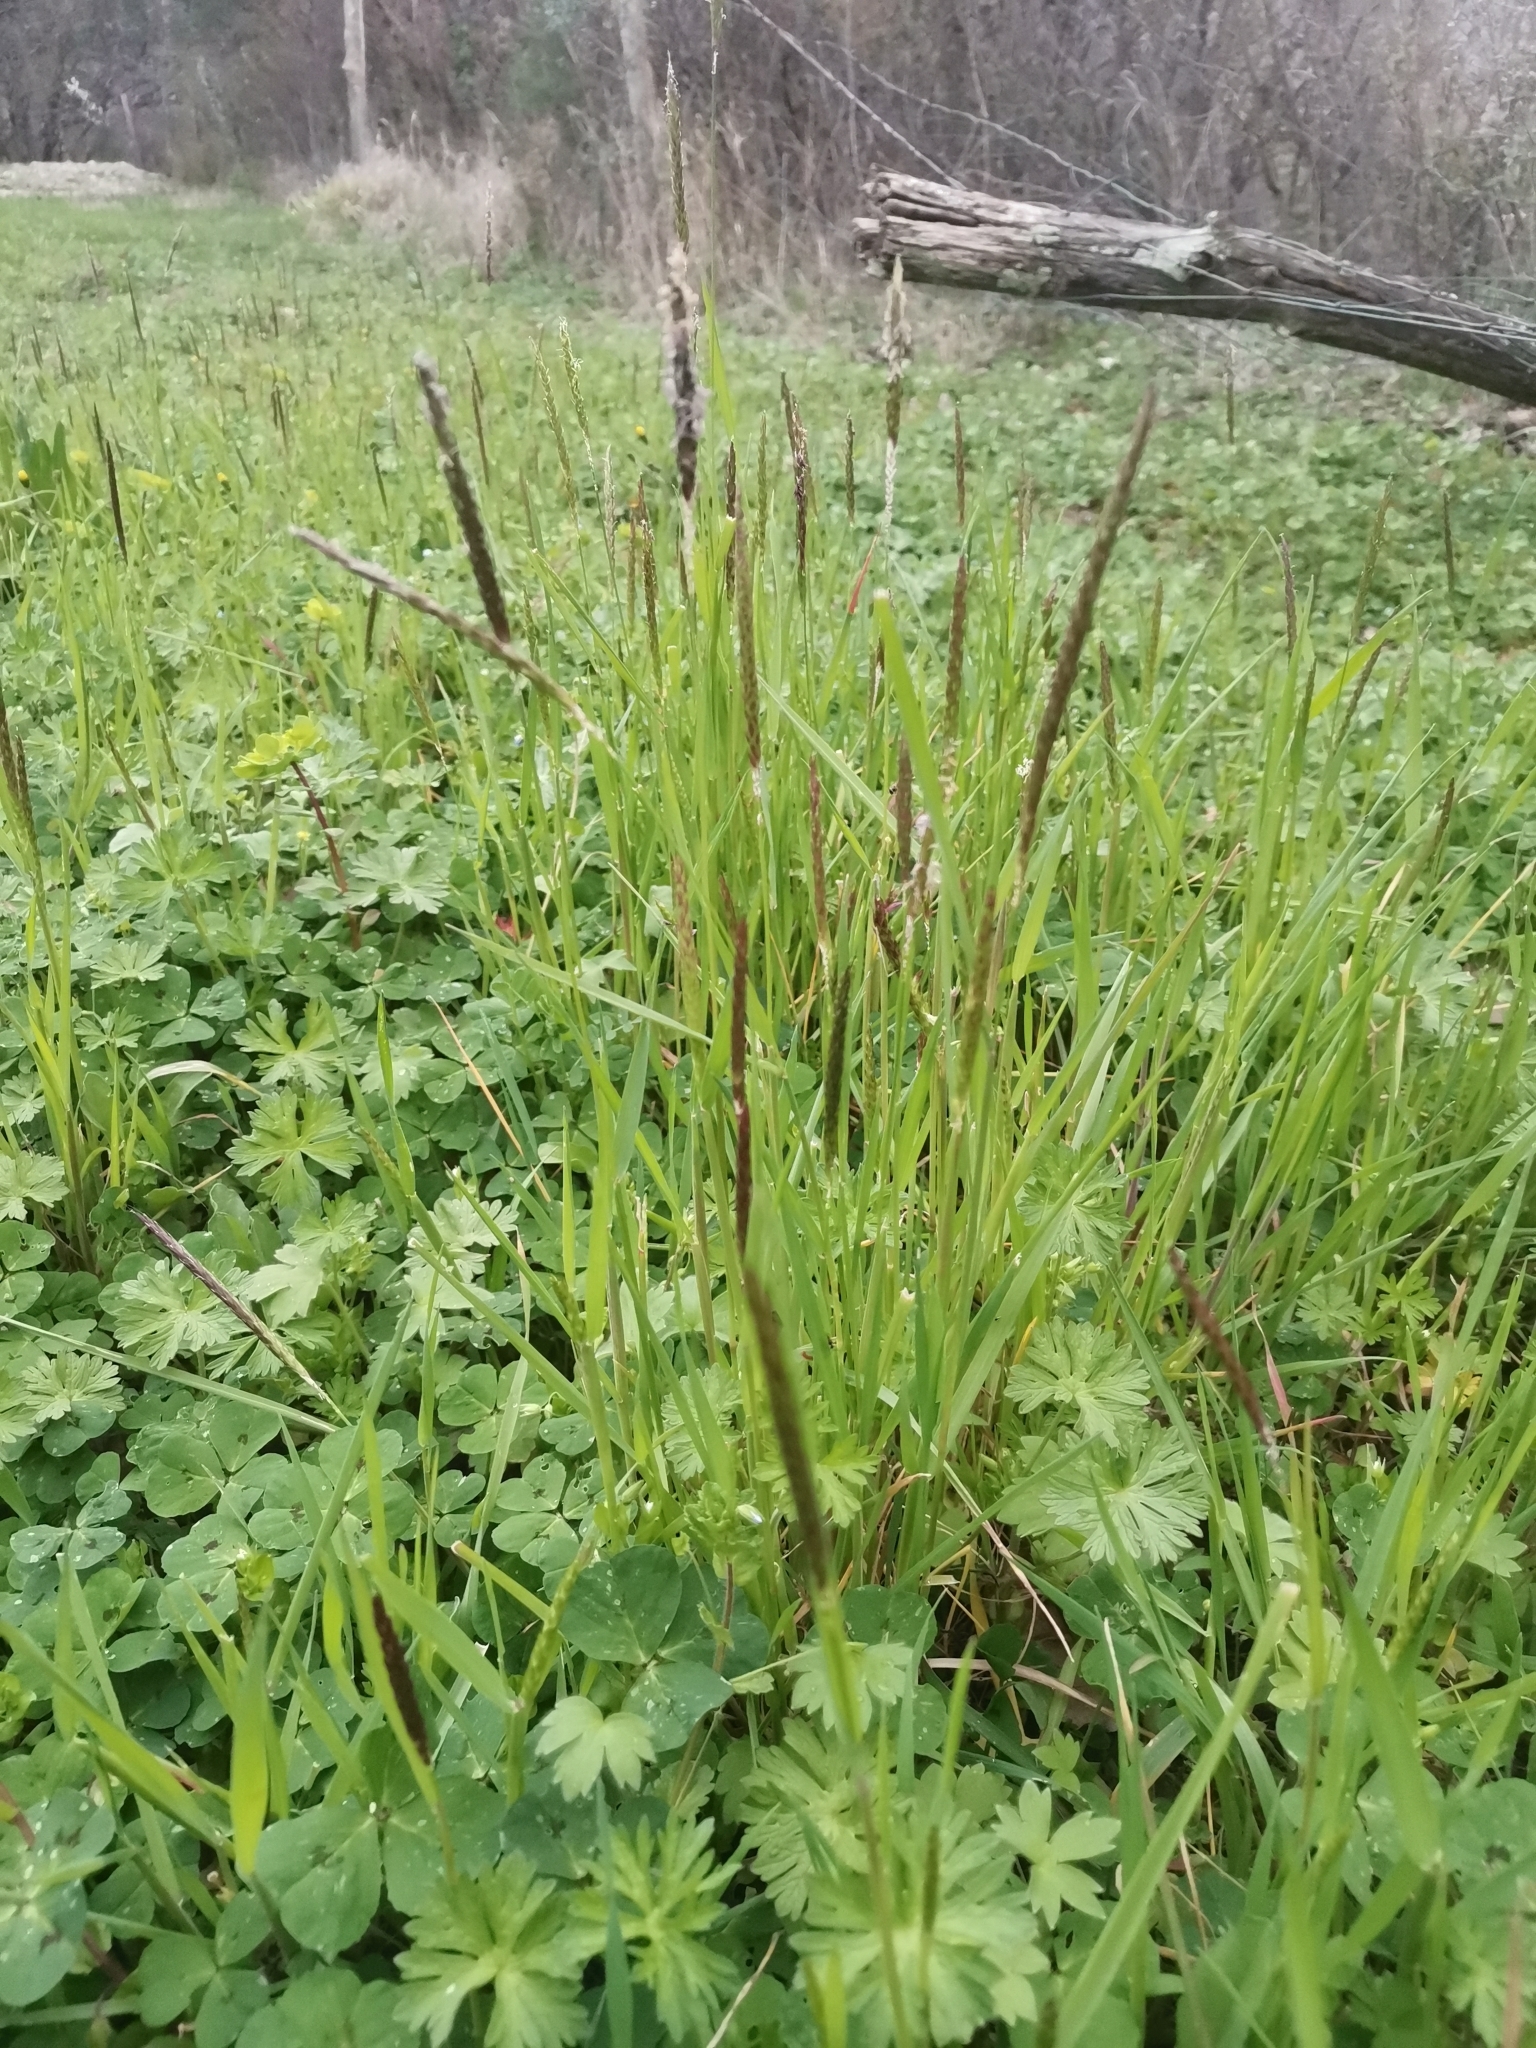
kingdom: Plantae
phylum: Tracheophyta
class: Liliopsida
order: Poales
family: Poaceae
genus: Alopecurus
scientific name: Alopecurus myosuroides
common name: Black-grass
